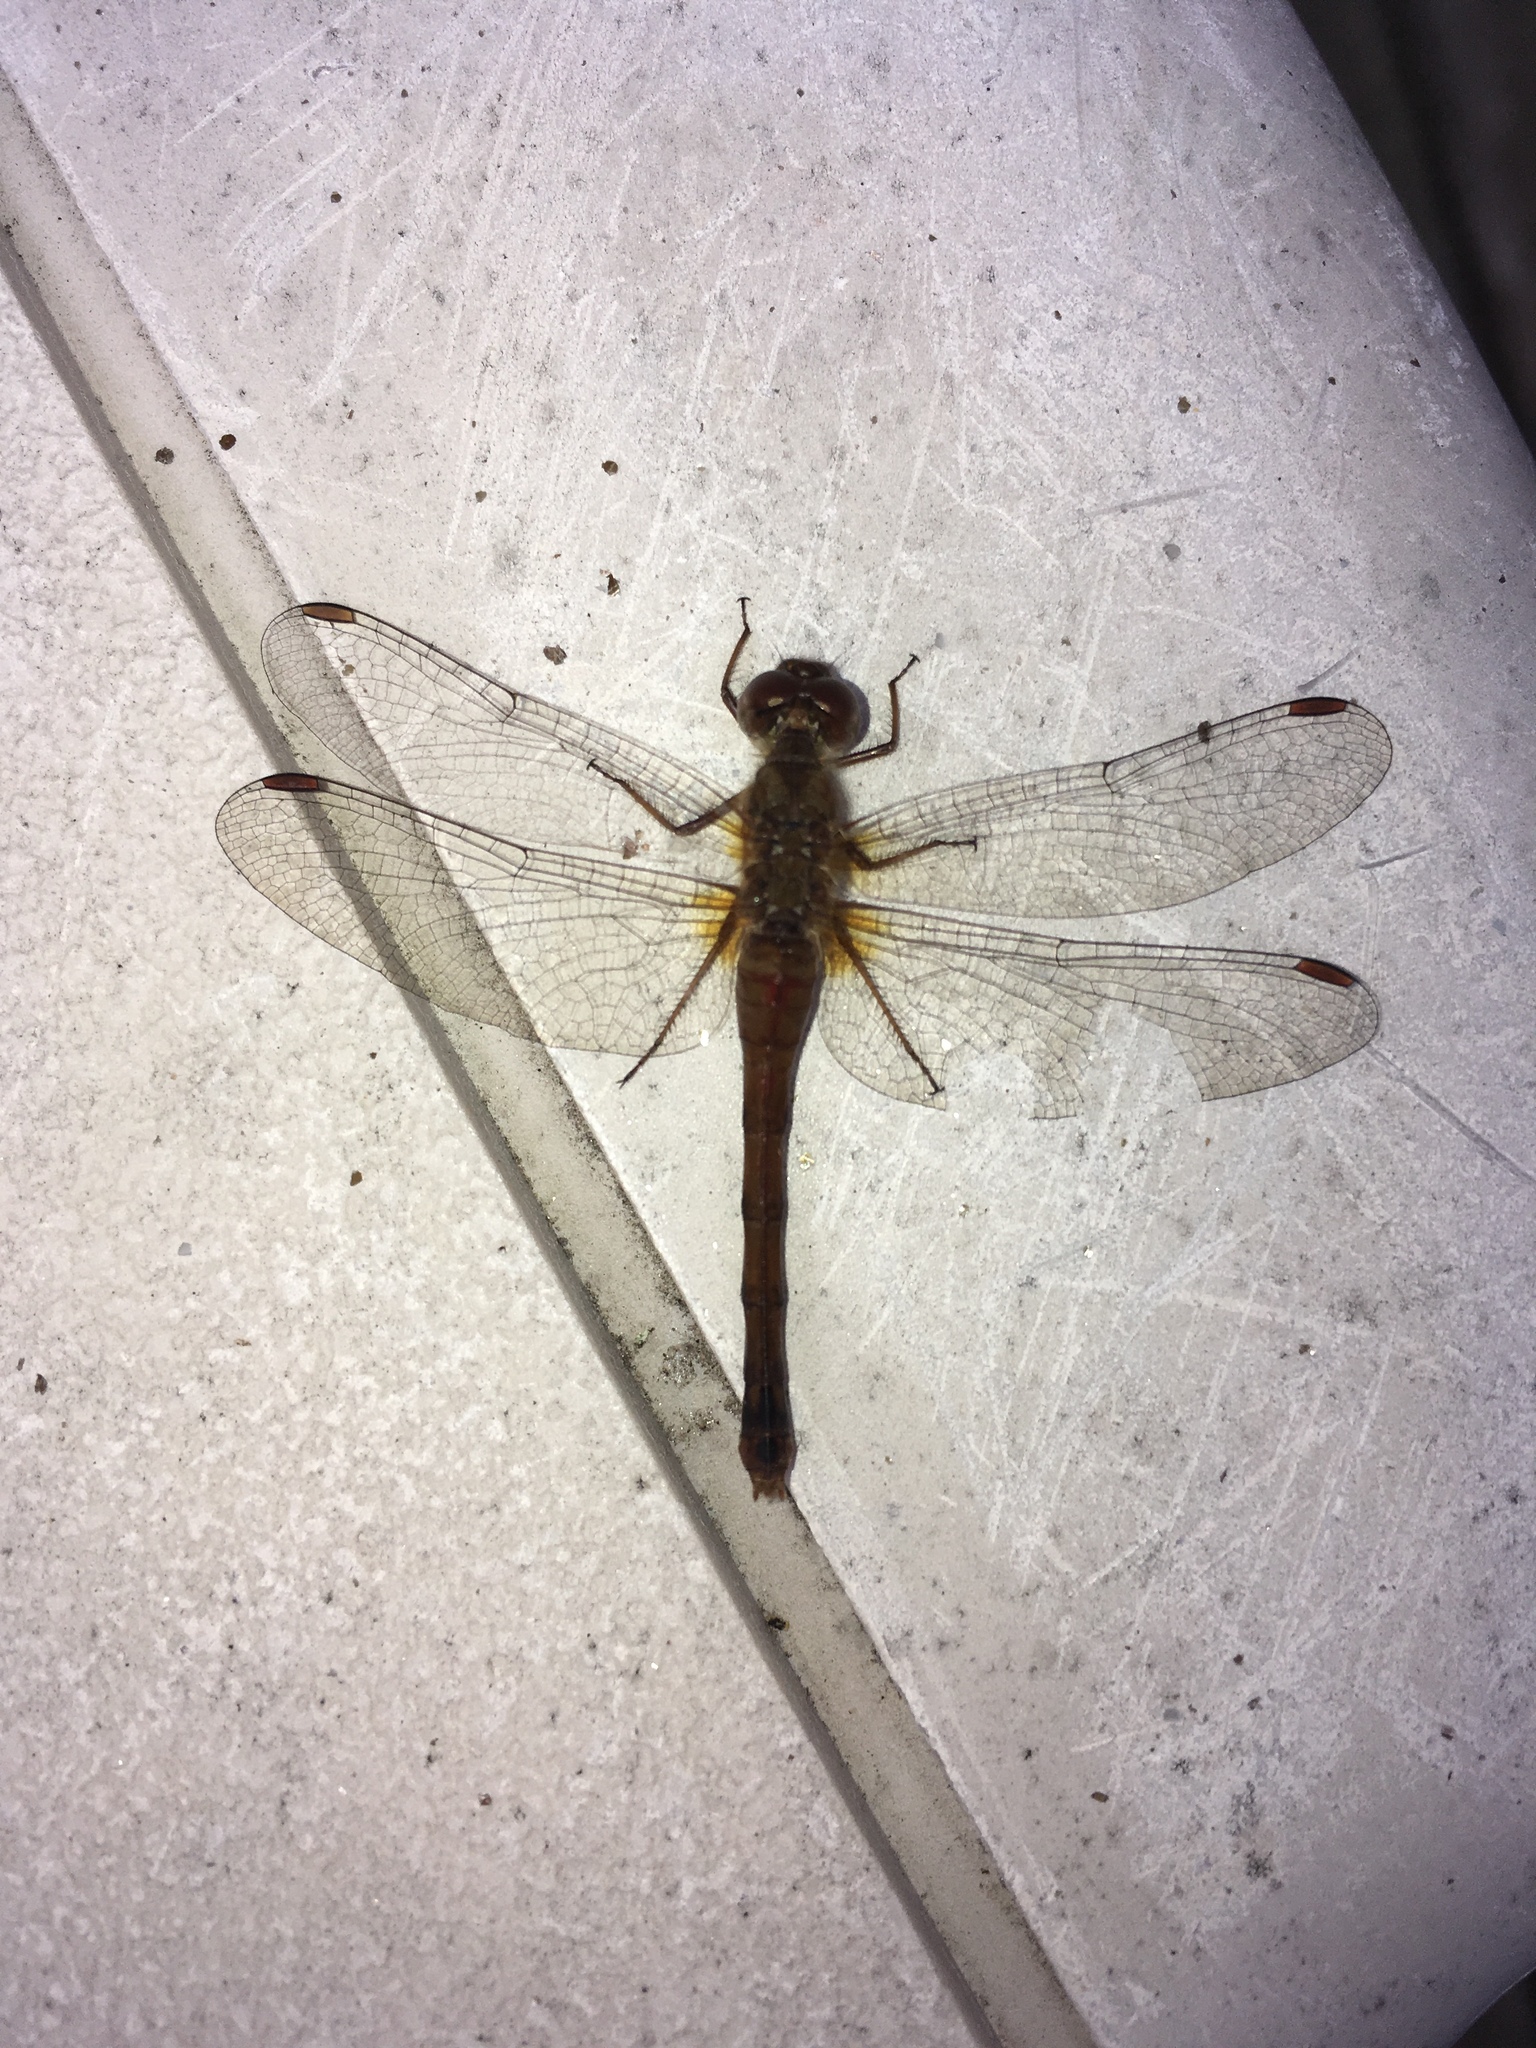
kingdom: Animalia
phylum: Arthropoda
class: Insecta
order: Odonata
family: Libellulidae
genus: Sympetrum
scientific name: Sympetrum vicinum
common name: Autumn meadowhawk
